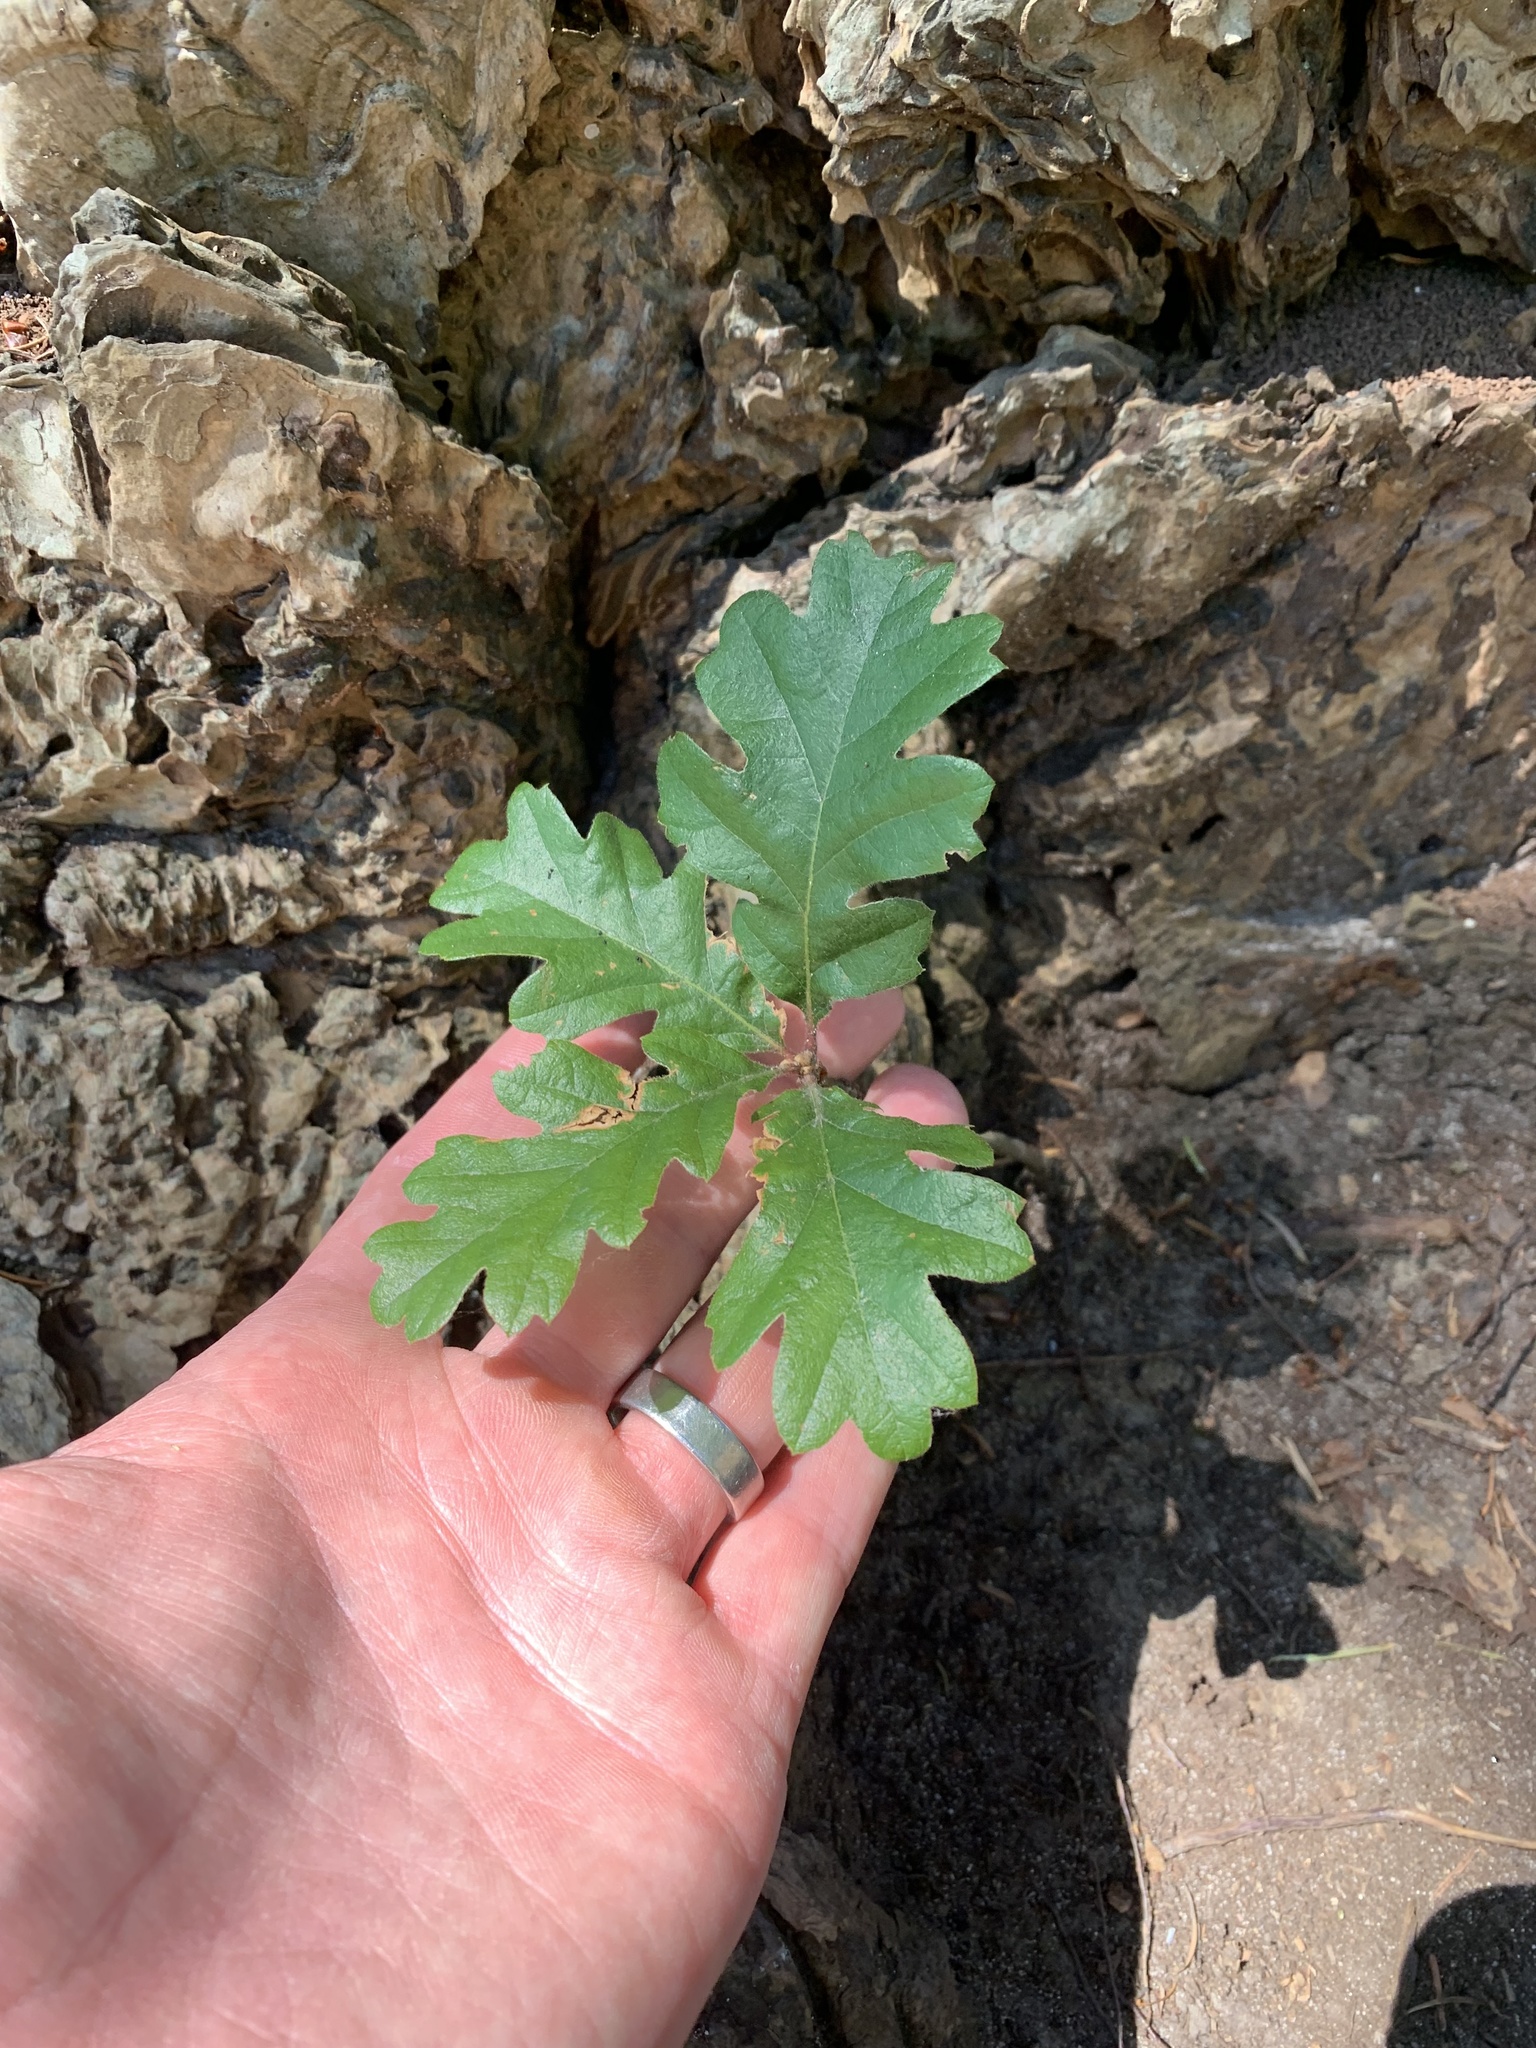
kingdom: Plantae
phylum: Tracheophyta
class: Magnoliopsida
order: Fagales
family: Fagaceae
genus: Quercus
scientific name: Quercus garryana
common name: Garry oak
